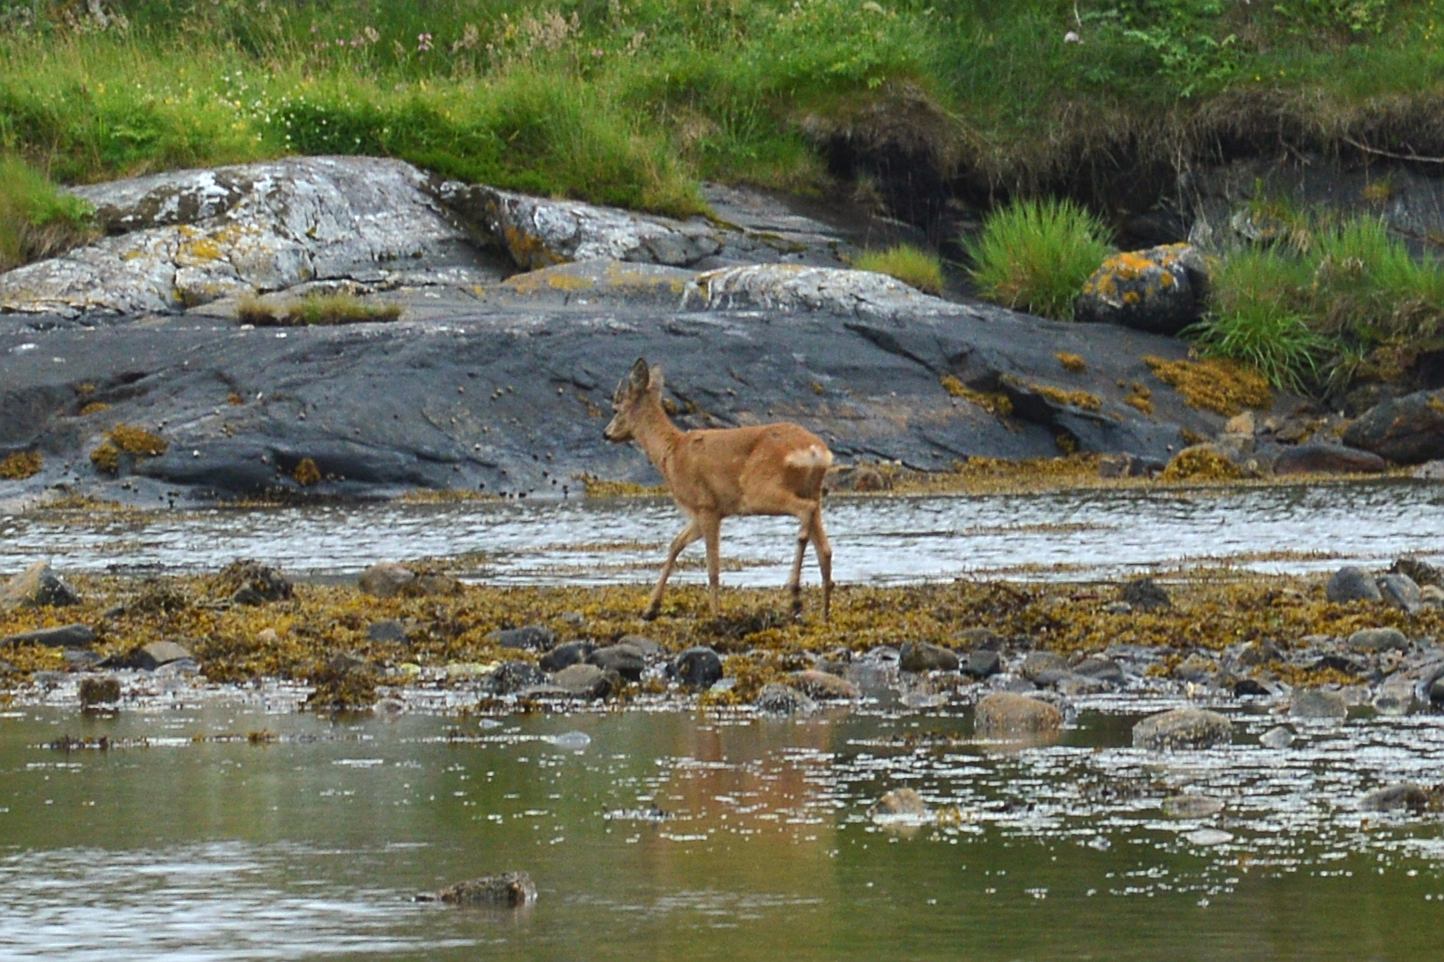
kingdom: Animalia
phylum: Chordata
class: Mammalia
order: Artiodactyla
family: Cervidae
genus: Capreolus
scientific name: Capreolus capreolus
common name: Western roe deer
